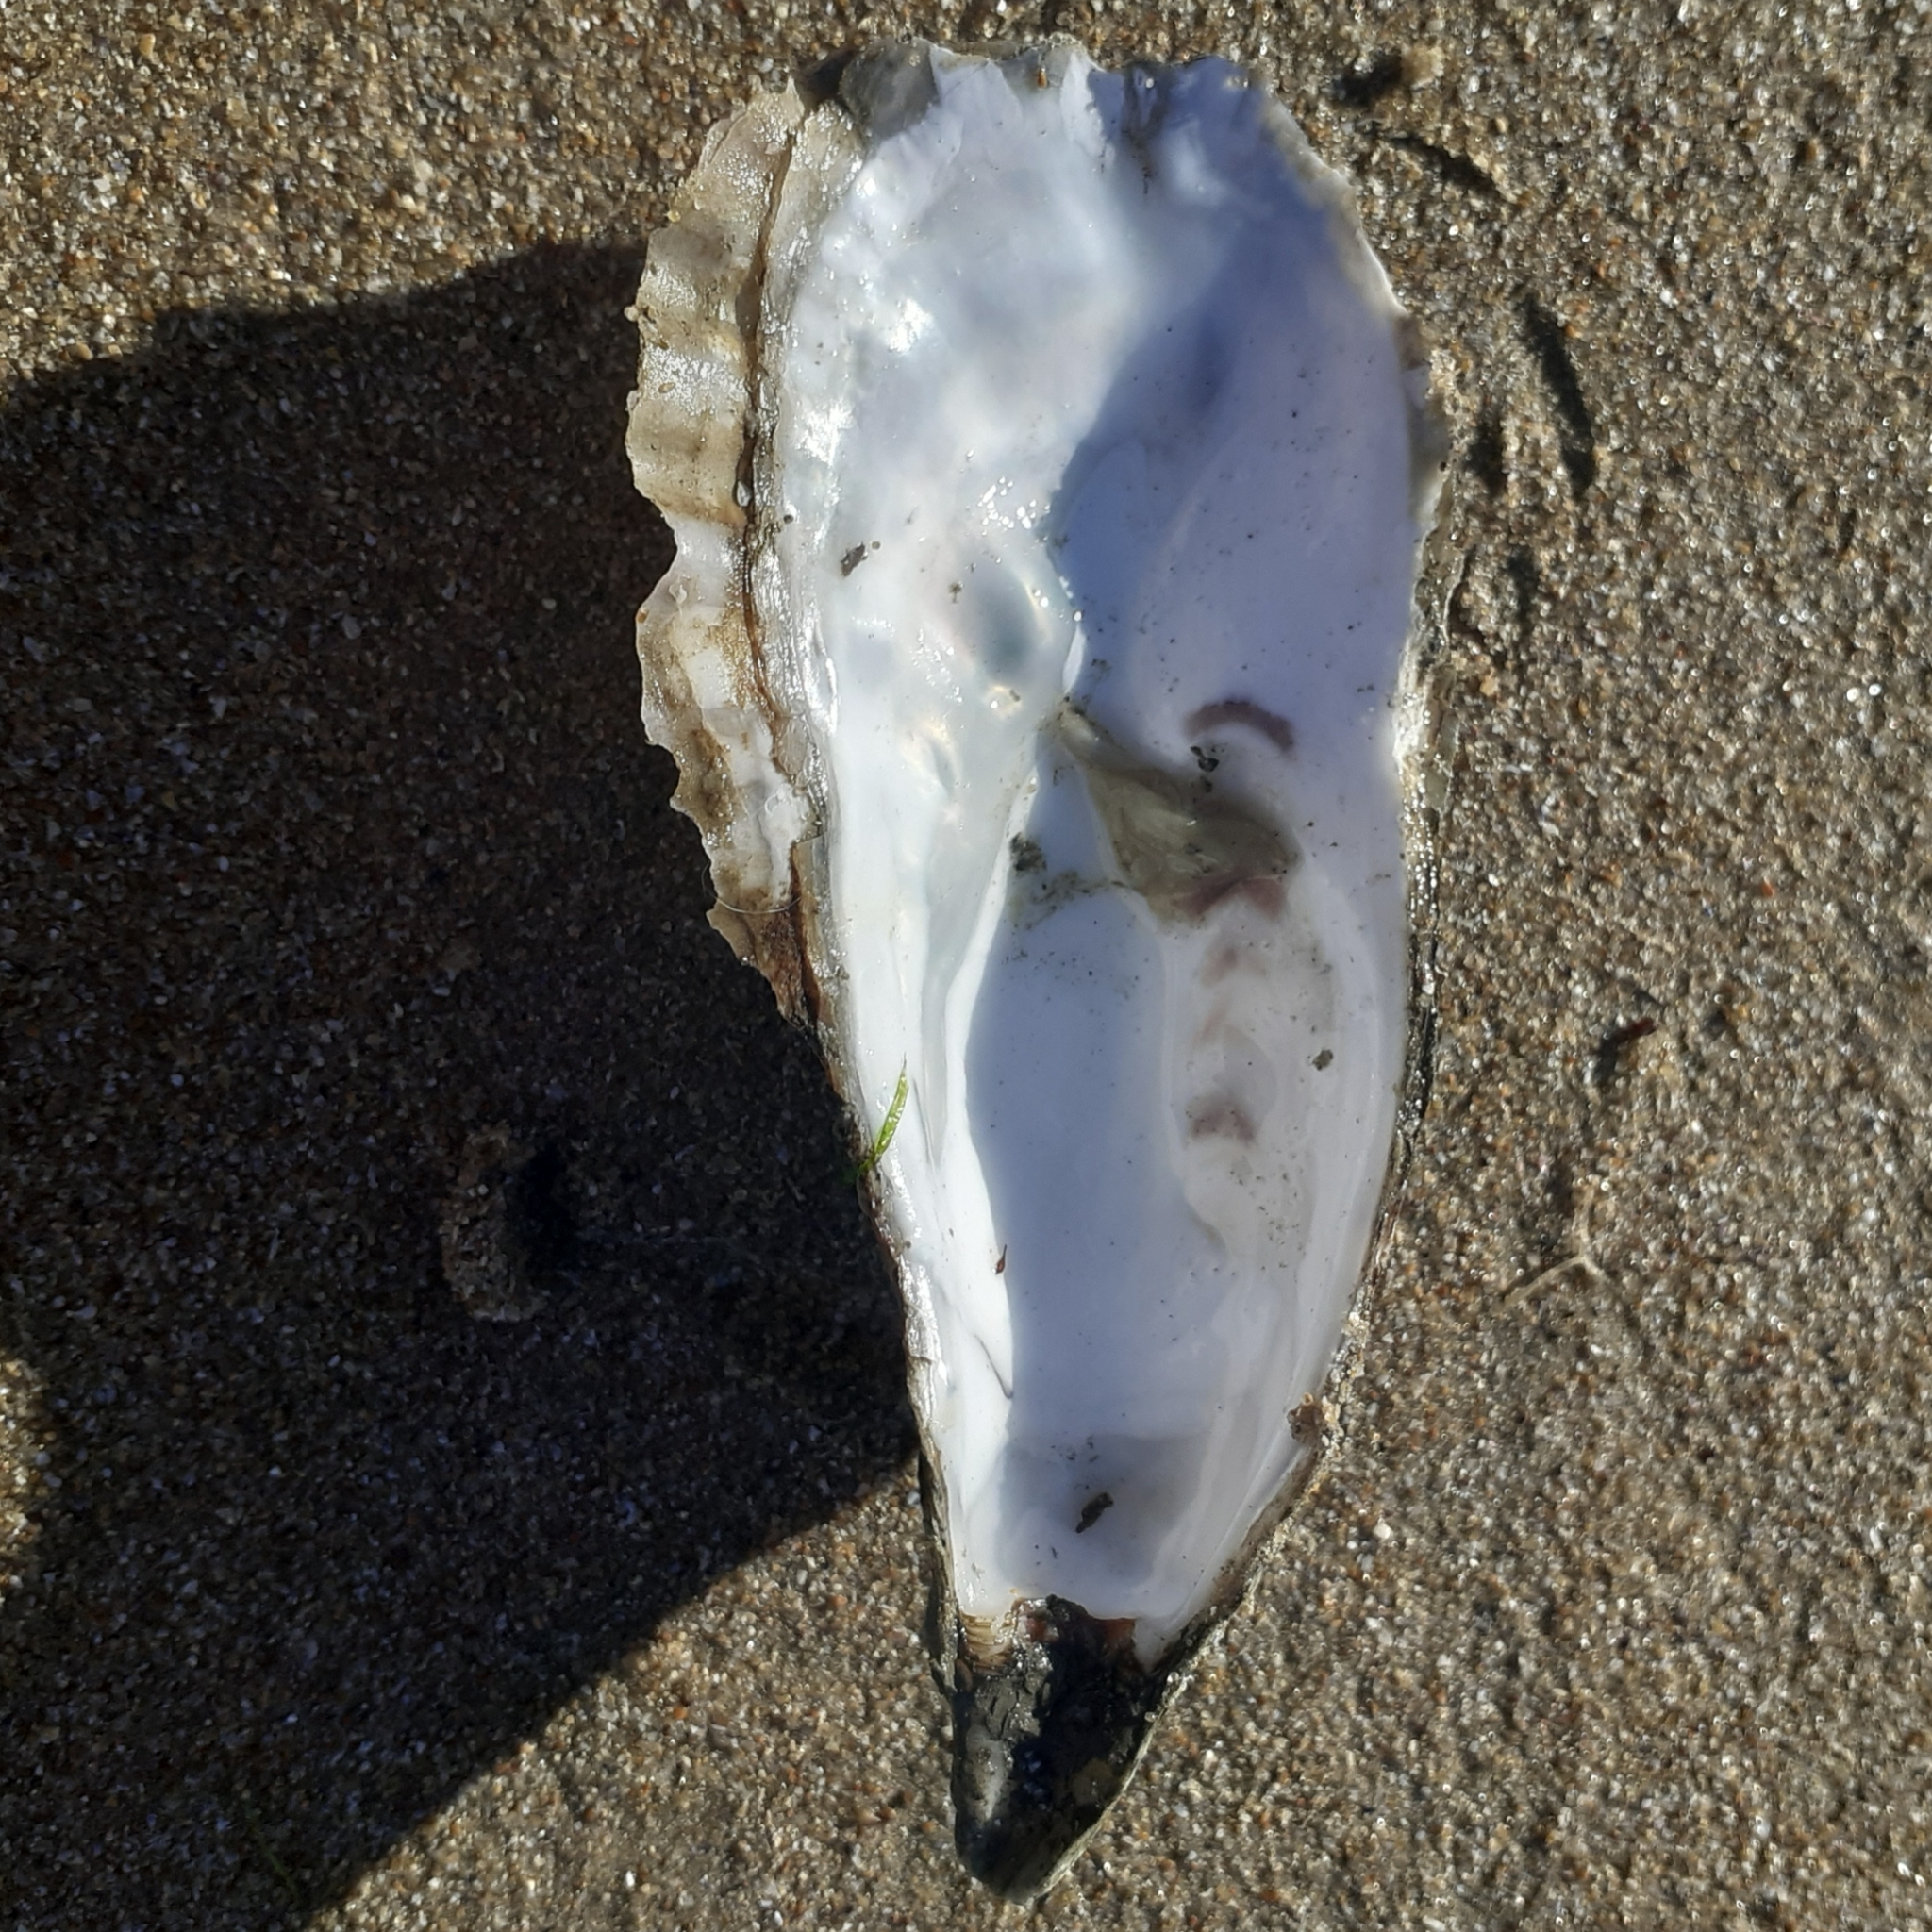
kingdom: Animalia
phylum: Mollusca
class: Bivalvia
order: Ostreida
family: Ostreidae
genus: Magallana
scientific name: Magallana gigas
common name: Pacific oyster
